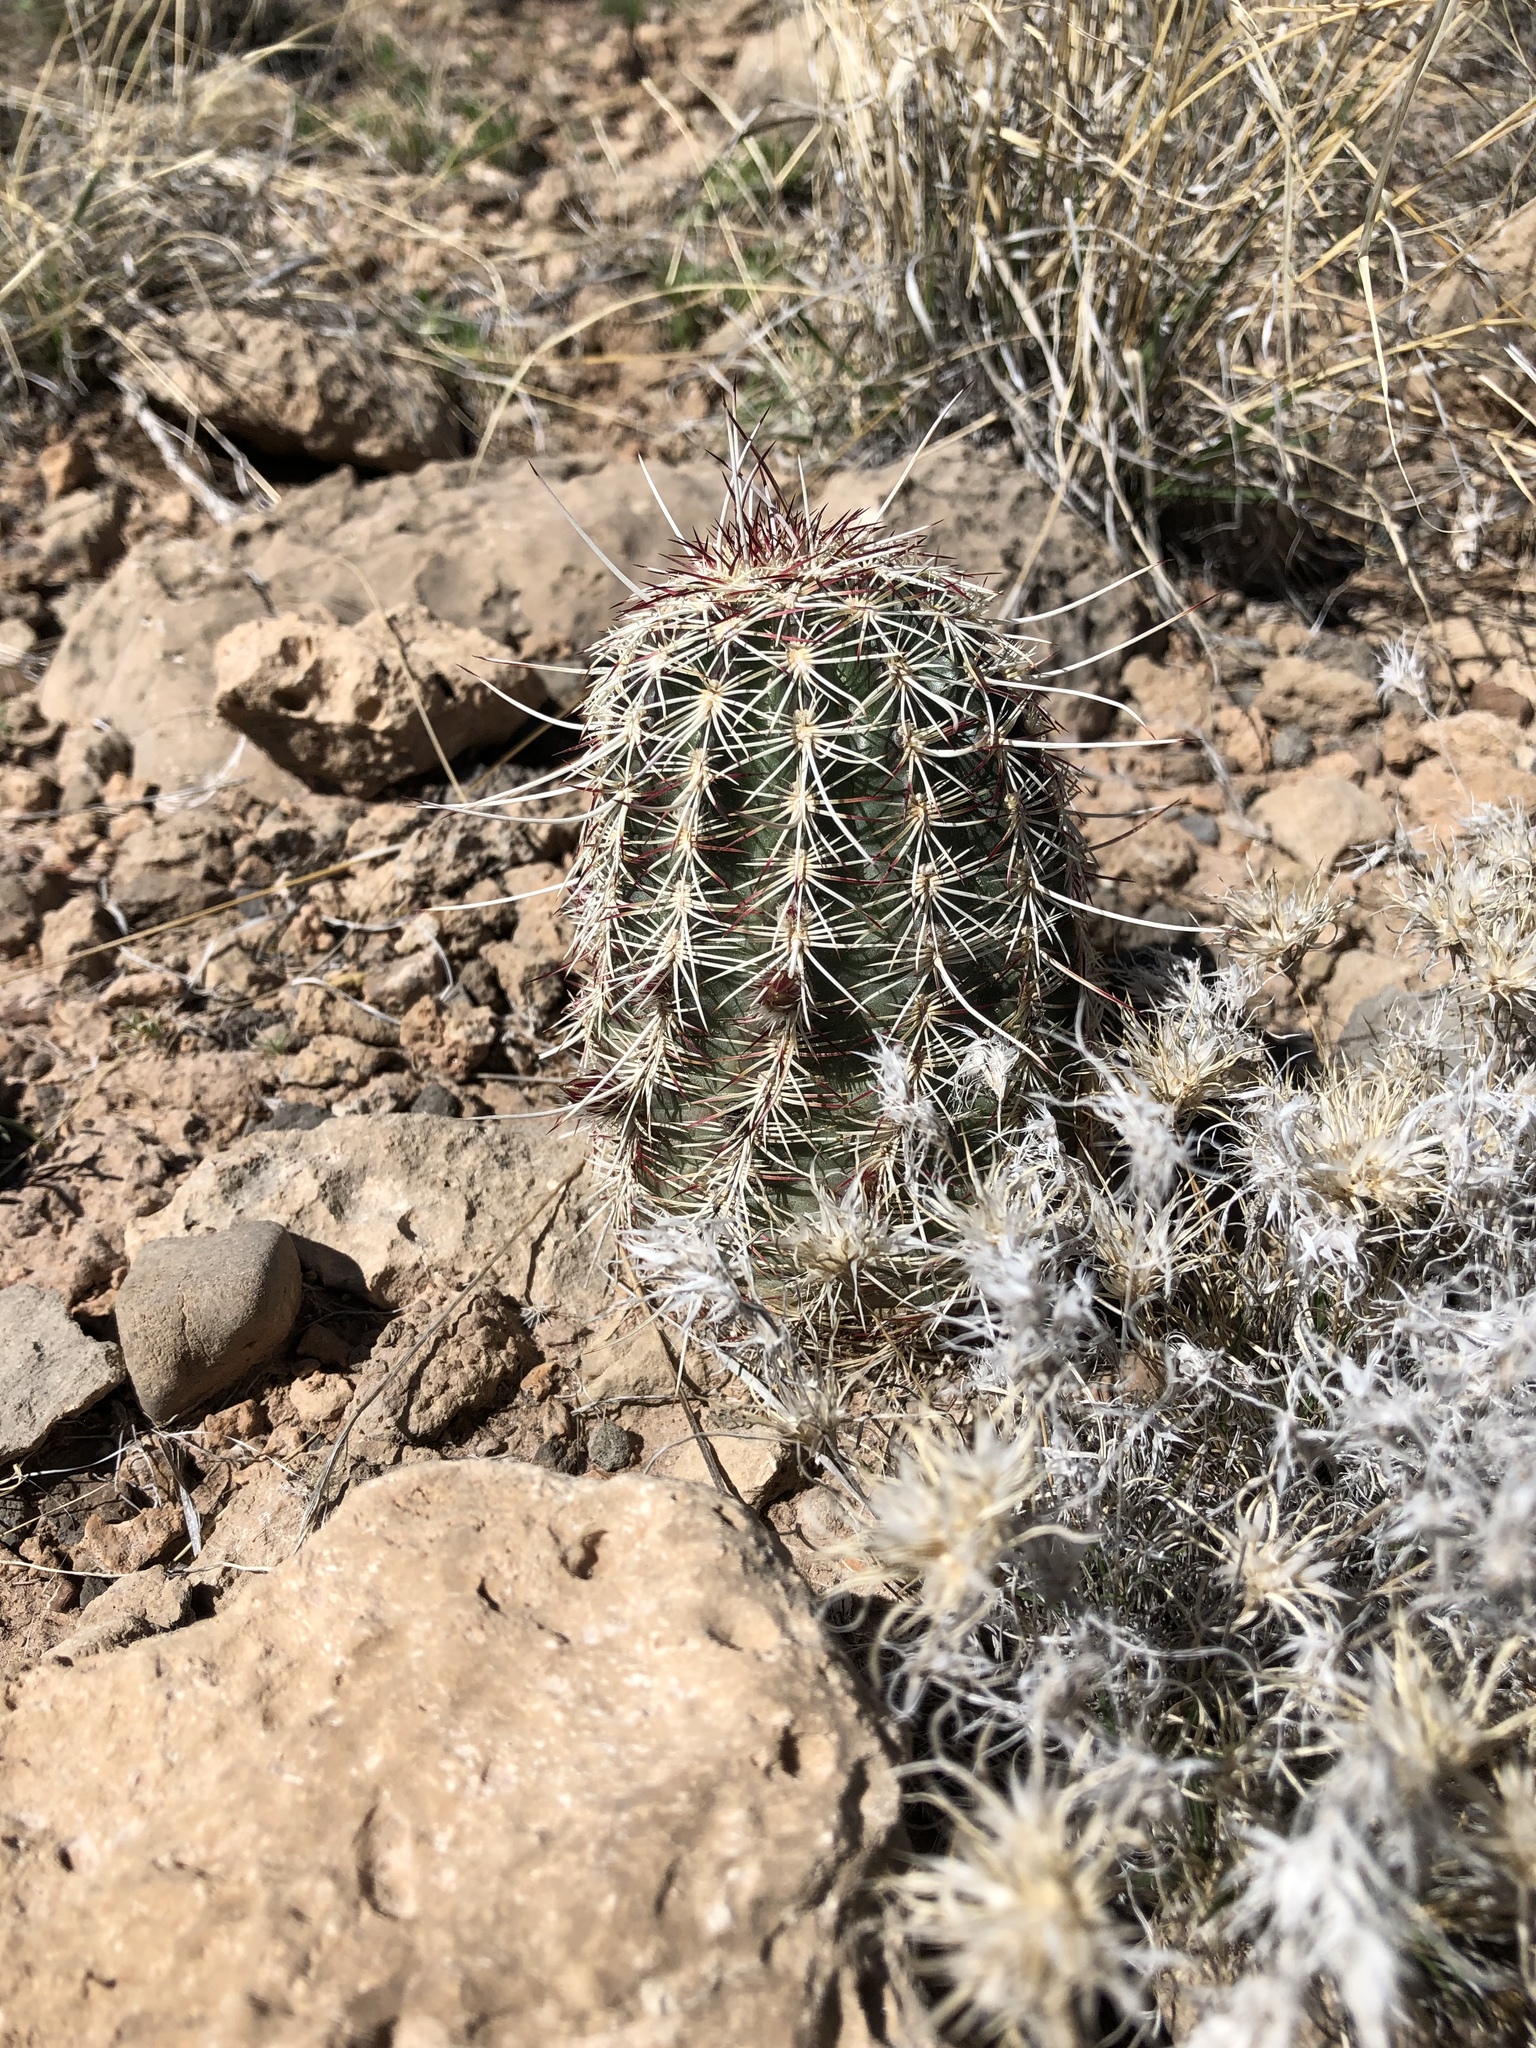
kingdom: Plantae
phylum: Tracheophyta
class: Magnoliopsida
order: Caryophyllales
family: Cactaceae
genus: Echinocereus
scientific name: Echinocereus viridiflorus
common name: Nylon hedgehog cactus
